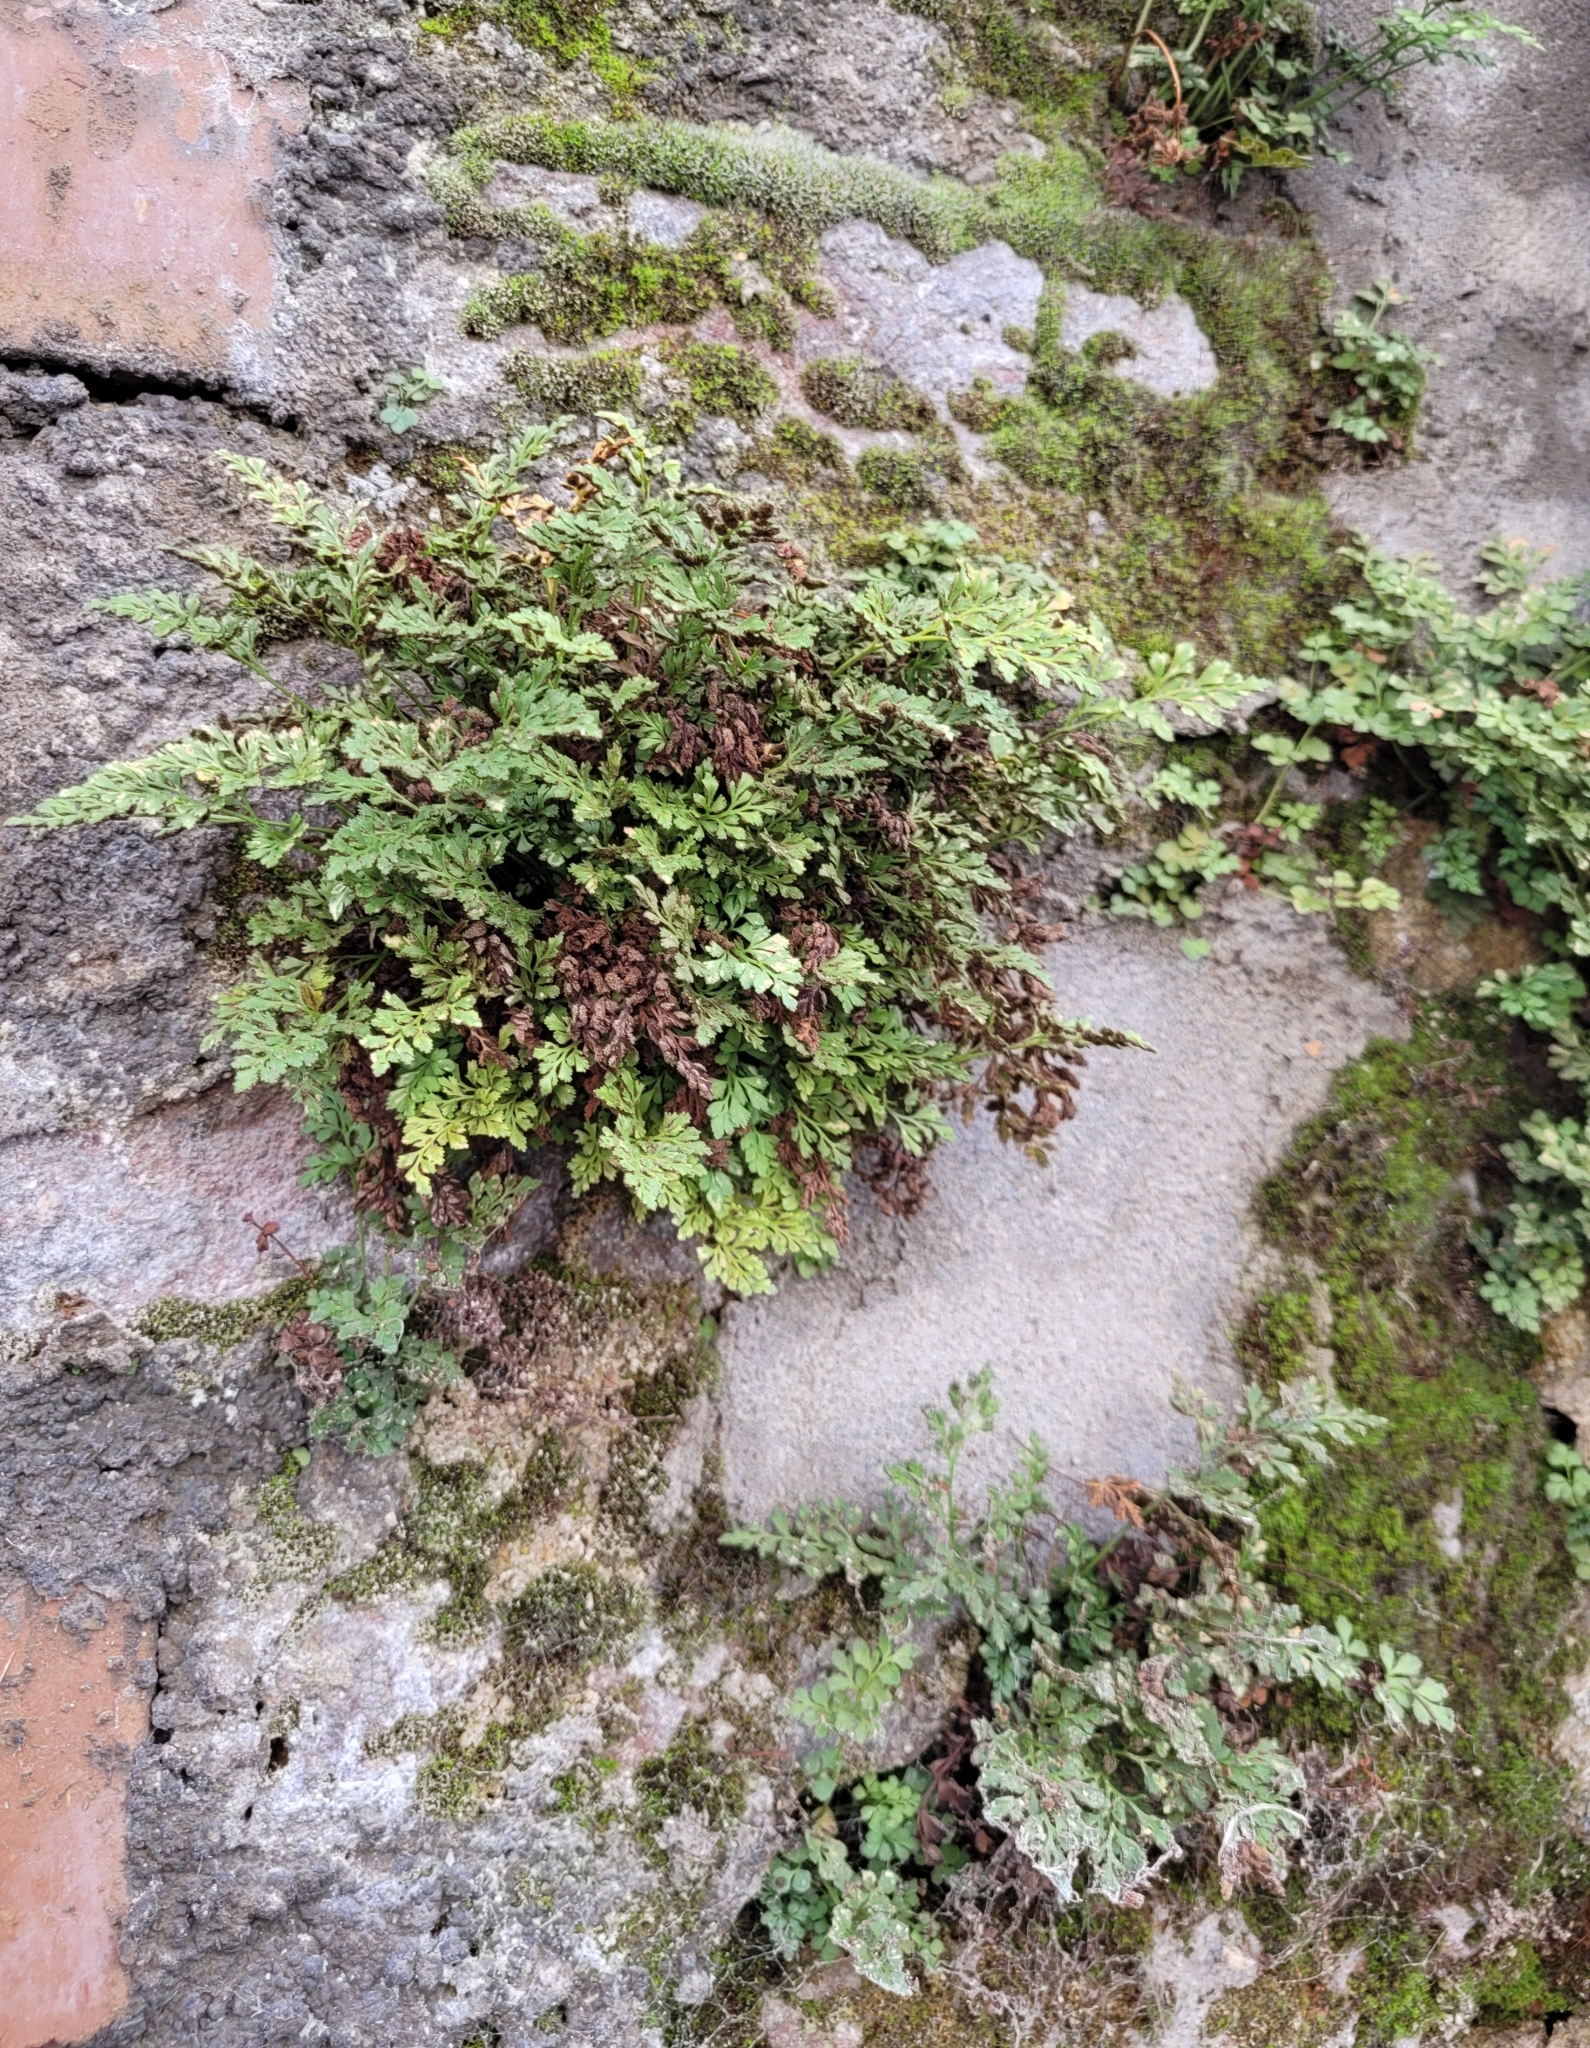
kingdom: Plantae
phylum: Tracheophyta
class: Polypodiopsida
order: Polypodiales
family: Aspleniaceae
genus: Asplenium
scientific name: Asplenium ruta-muraria
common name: Wall-rue
